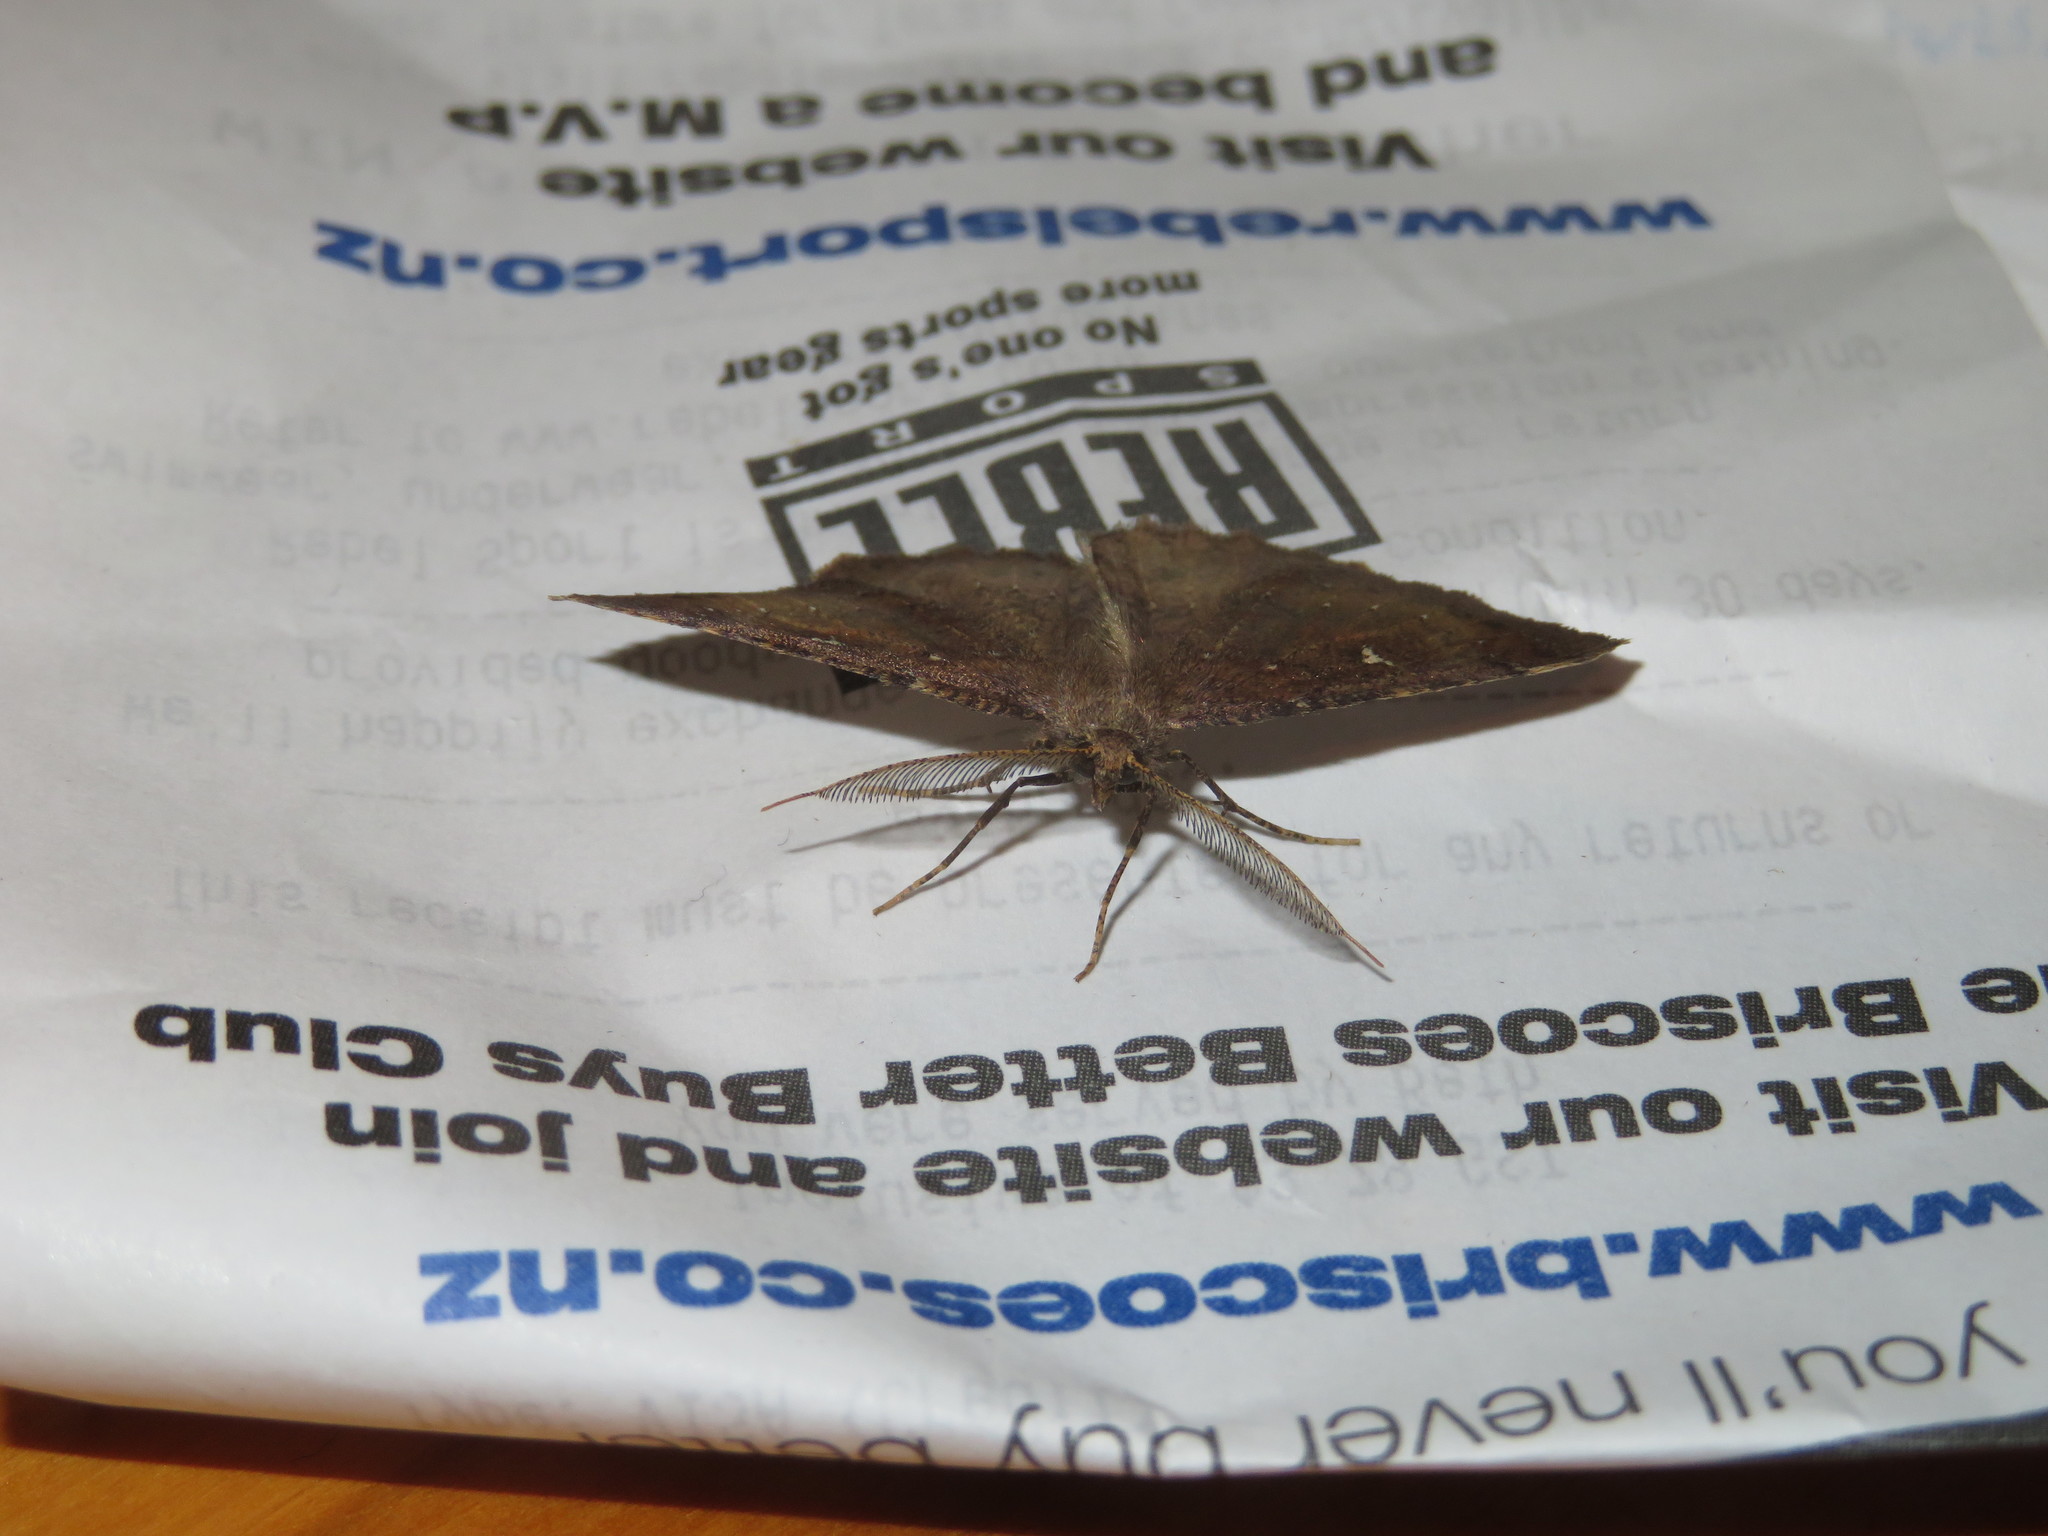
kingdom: Animalia
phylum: Arthropoda
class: Insecta
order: Lepidoptera
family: Geometridae
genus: Cleora
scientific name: Cleora scriptaria
